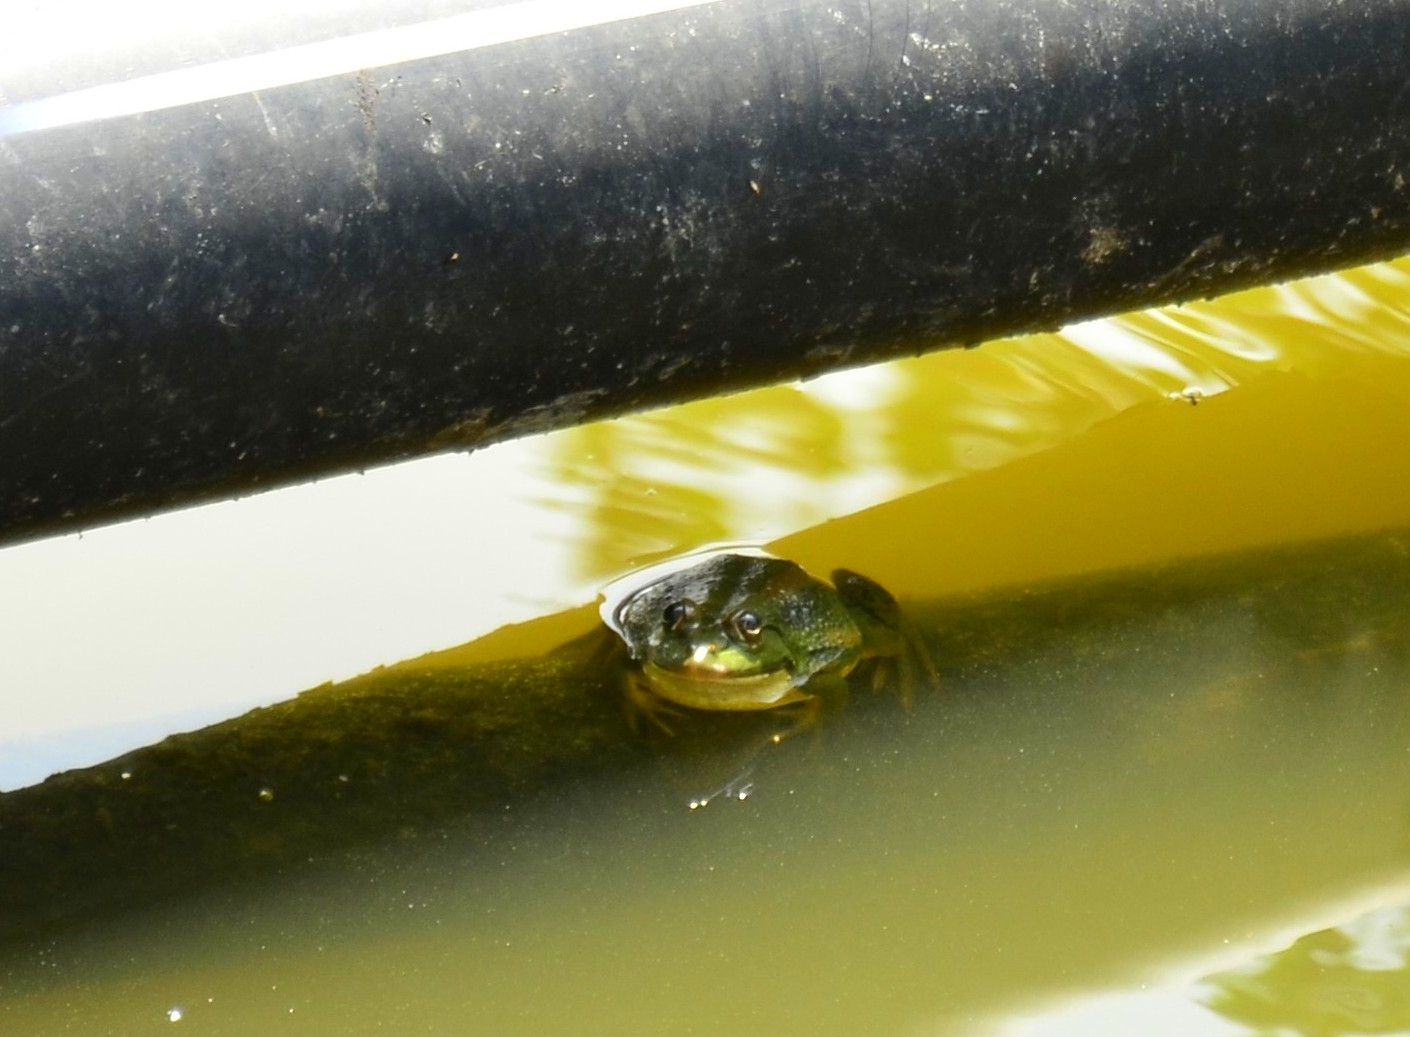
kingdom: Animalia
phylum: Chordata
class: Amphibia
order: Anura
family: Dicroglossidae
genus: Euphlyctis
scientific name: Euphlyctis karaavali
